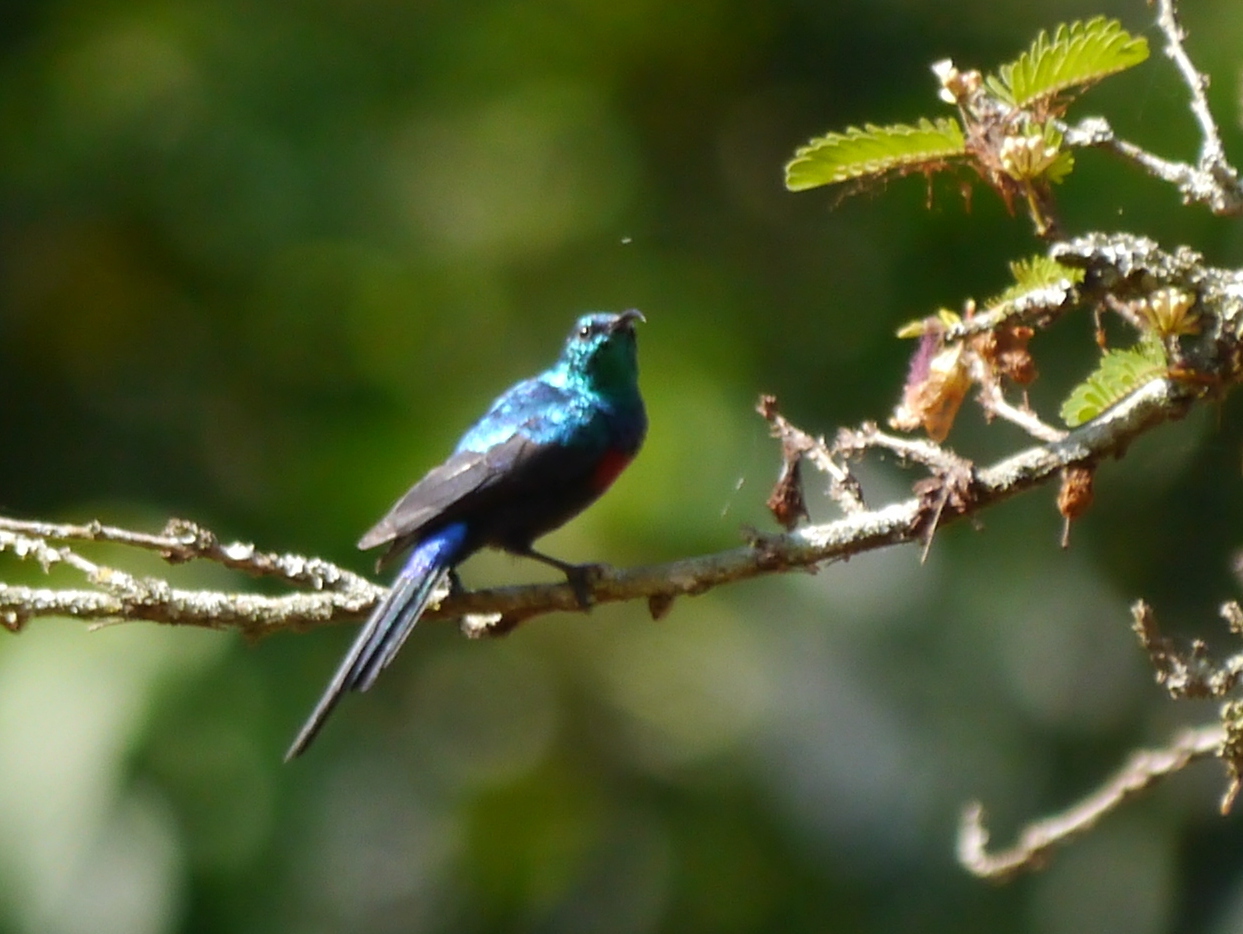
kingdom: Animalia
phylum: Chordata
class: Aves
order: Passeriformes
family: Nectariniidae
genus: Cinnyris
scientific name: Cinnyris erythrocercus
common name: Red-chested sunbird
